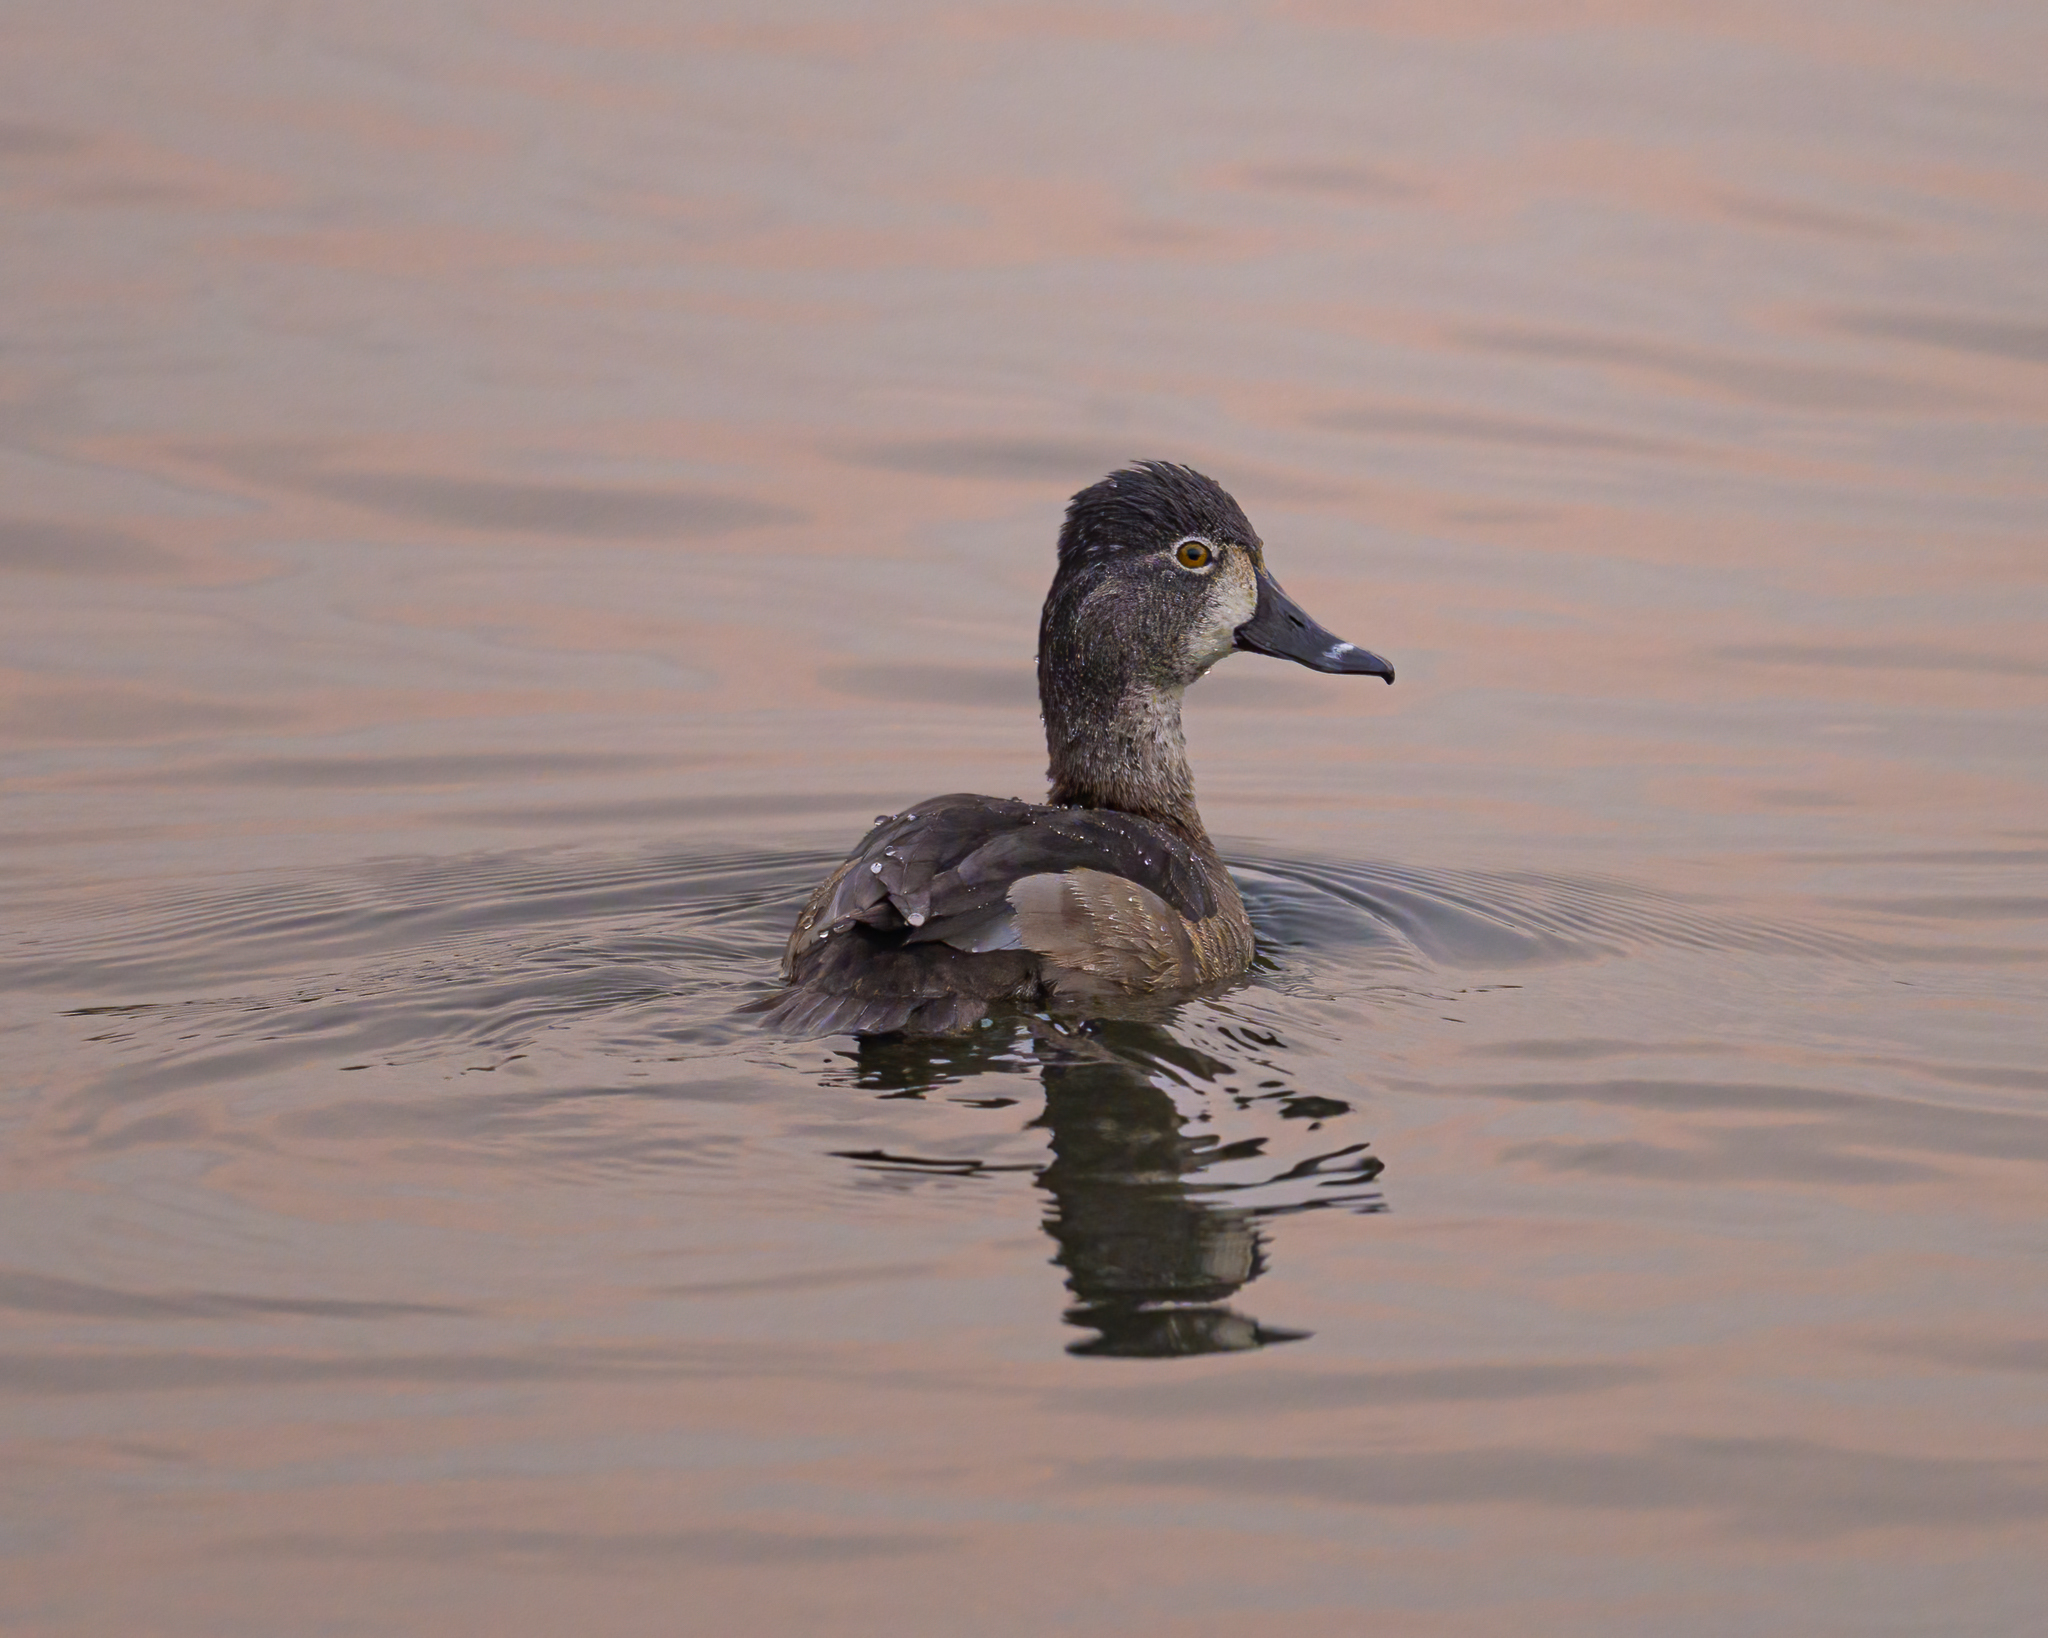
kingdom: Animalia
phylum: Chordata
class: Aves
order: Anseriformes
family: Anatidae
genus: Aythya
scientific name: Aythya collaris
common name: Ring-necked duck
